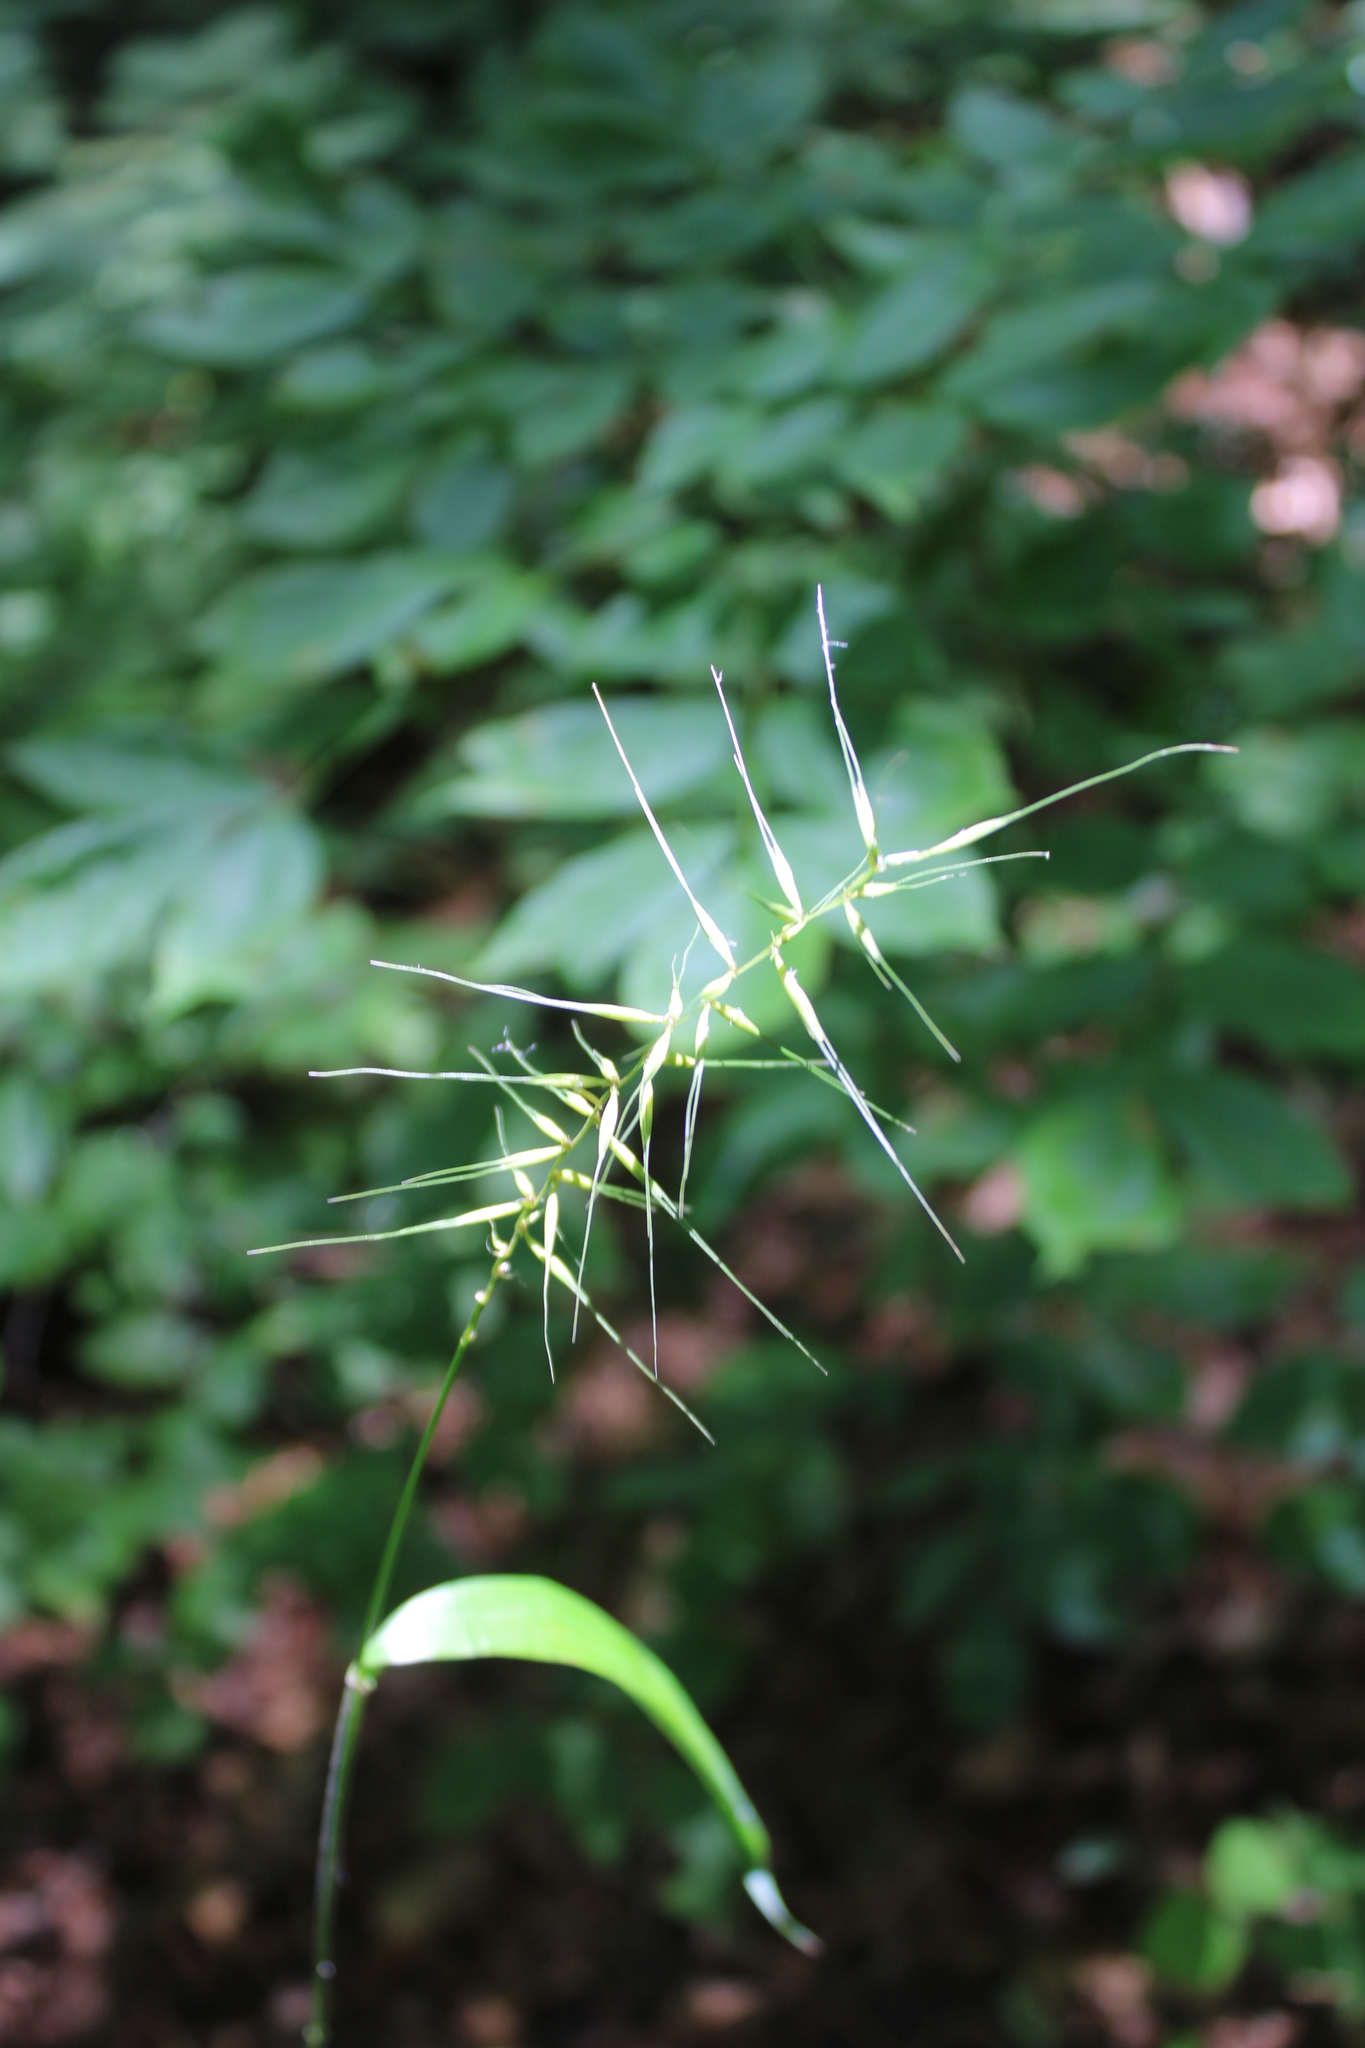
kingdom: Plantae
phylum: Tracheophyta
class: Liliopsida
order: Poales
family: Poaceae
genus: Elymus
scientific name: Elymus hystrix
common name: Bottlebrush grass
